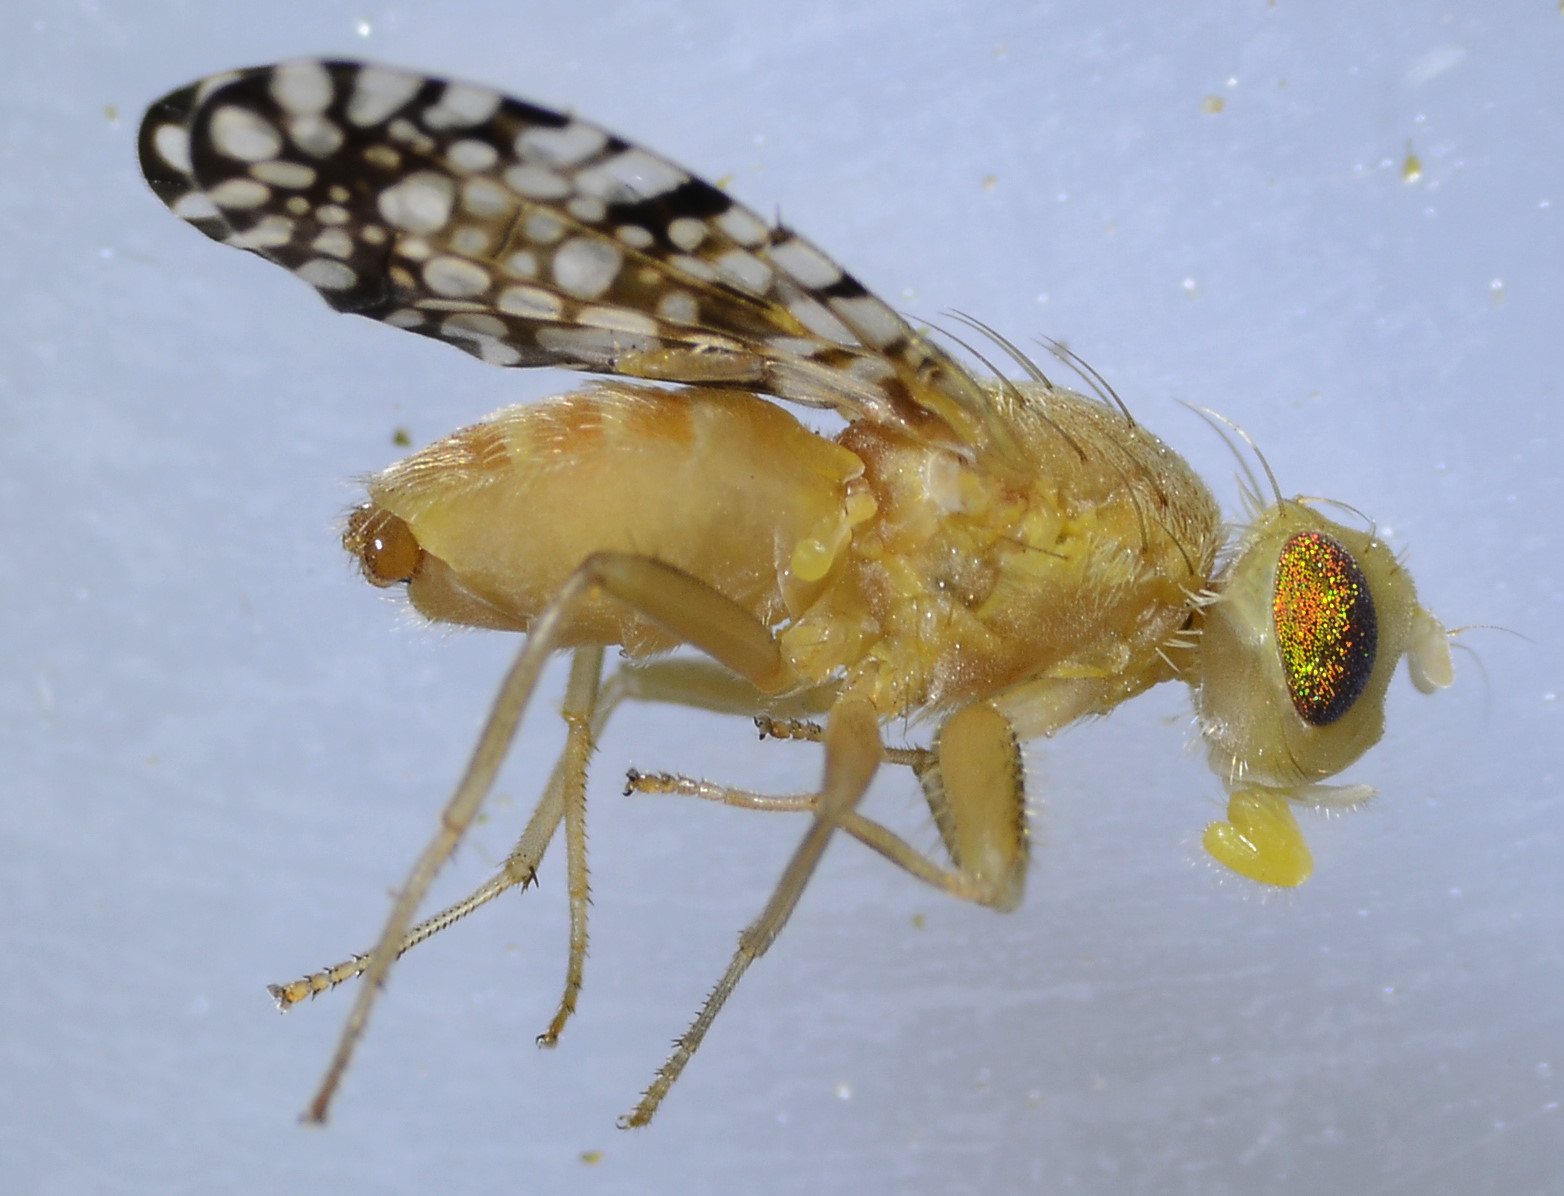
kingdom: Animalia
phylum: Arthropoda
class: Insecta
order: Diptera
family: Tephritidae
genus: Euaresta
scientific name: Euaresta aequalis
